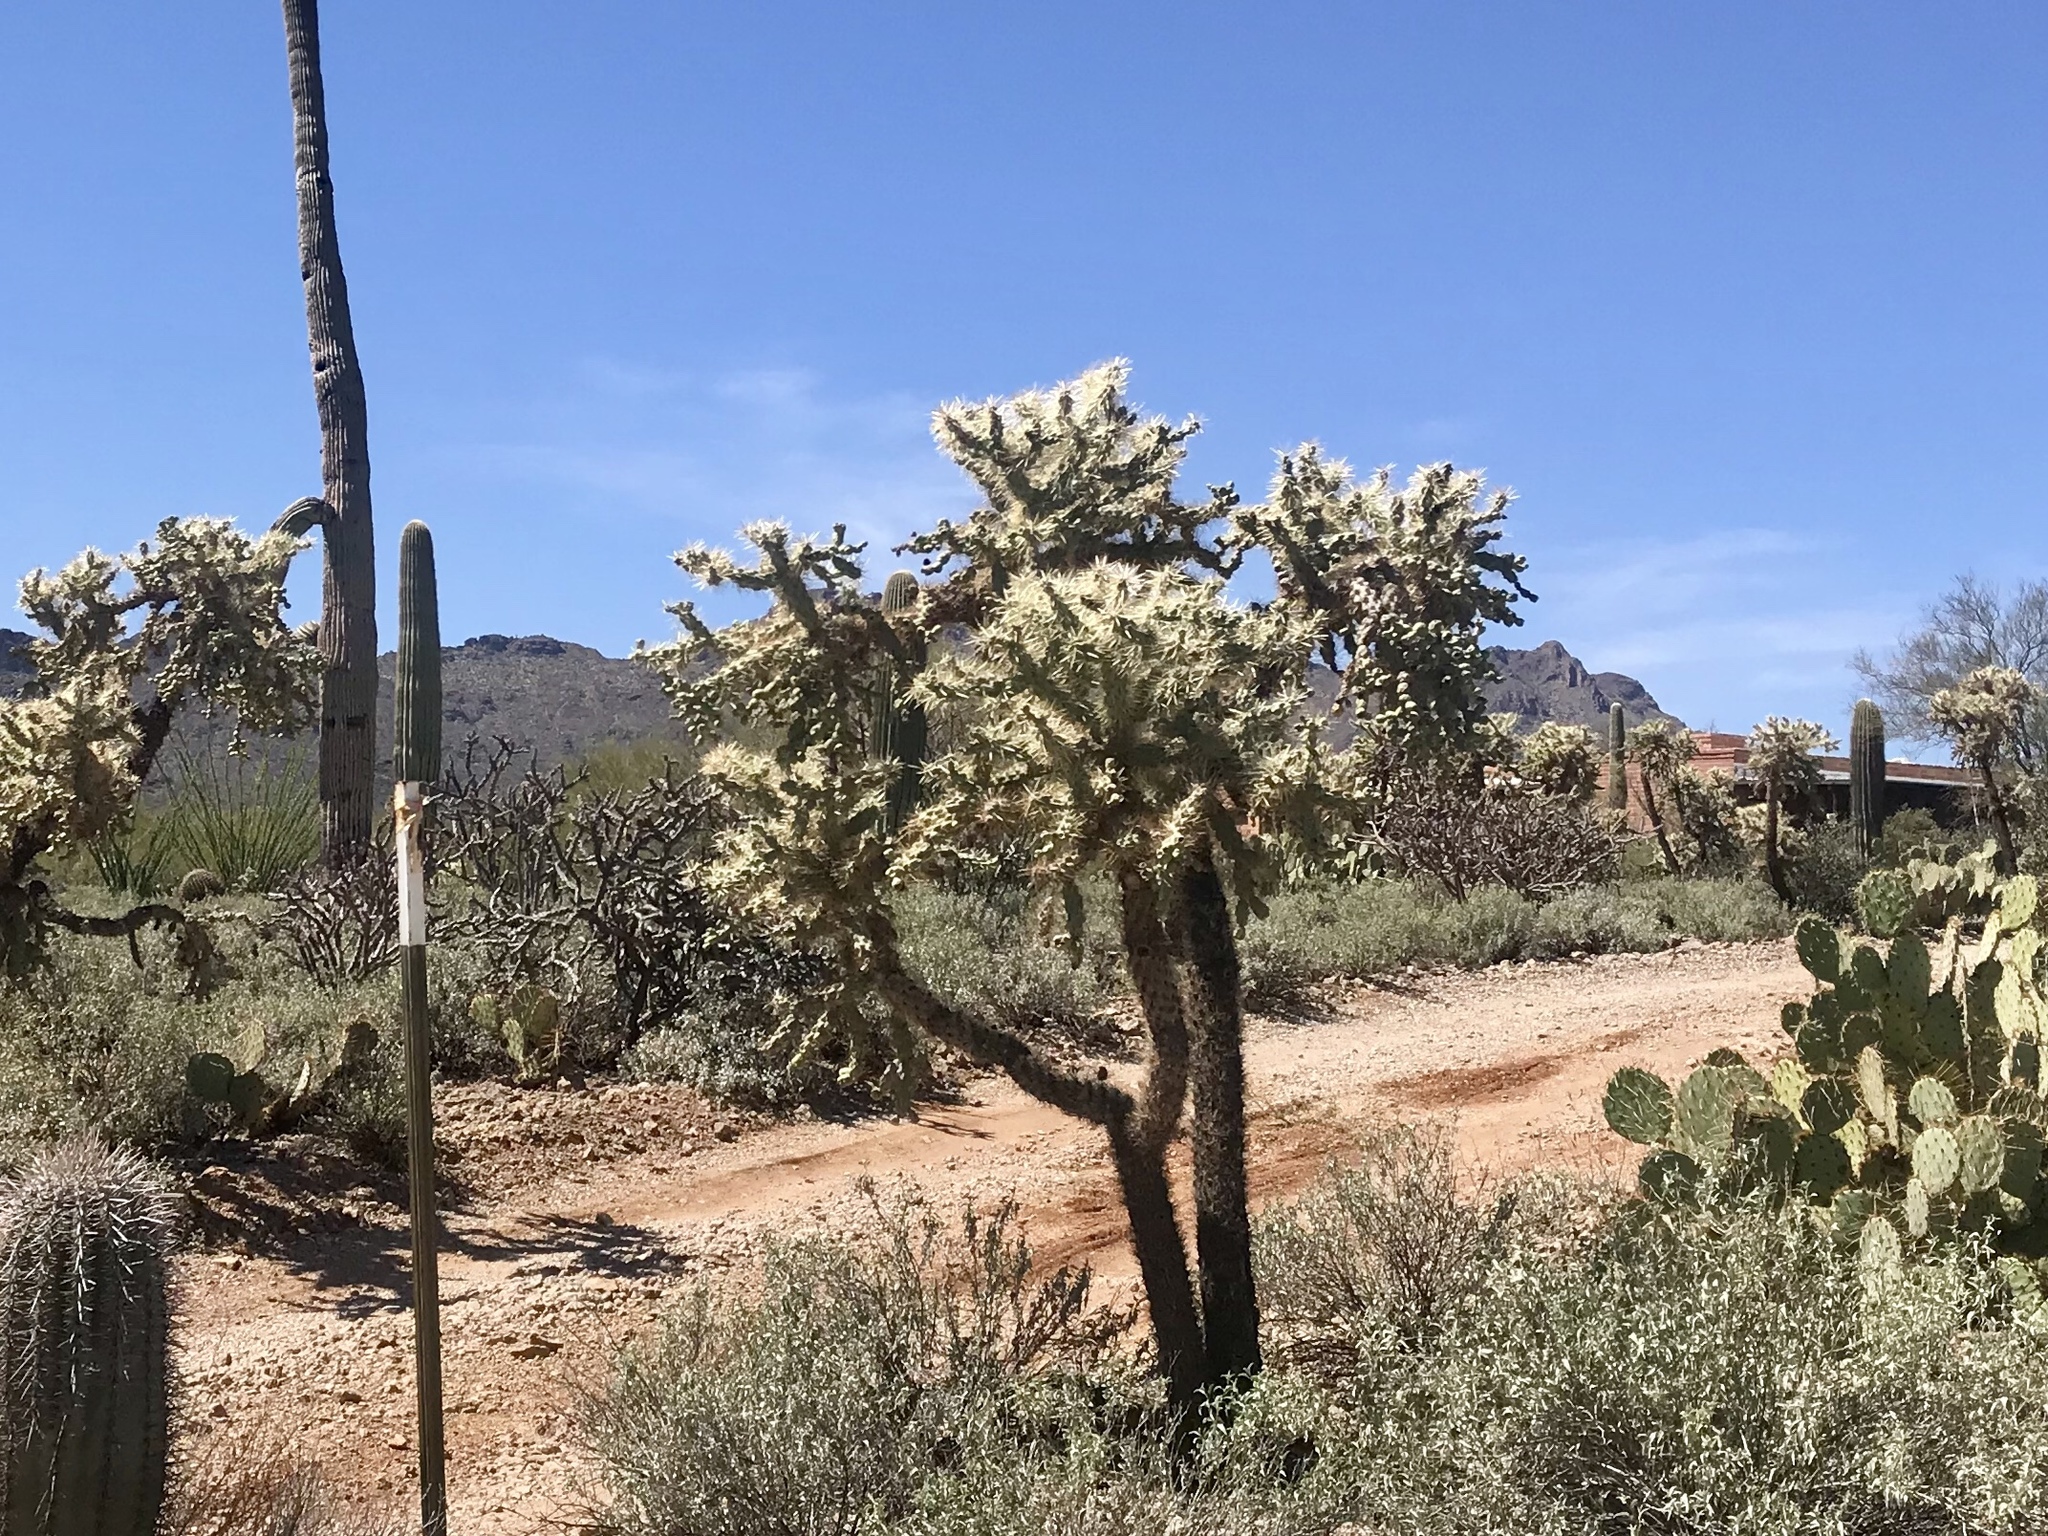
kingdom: Plantae
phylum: Tracheophyta
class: Magnoliopsida
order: Caryophyllales
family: Cactaceae
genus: Cylindropuntia
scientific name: Cylindropuntia fulgida
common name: Jumping cholla
